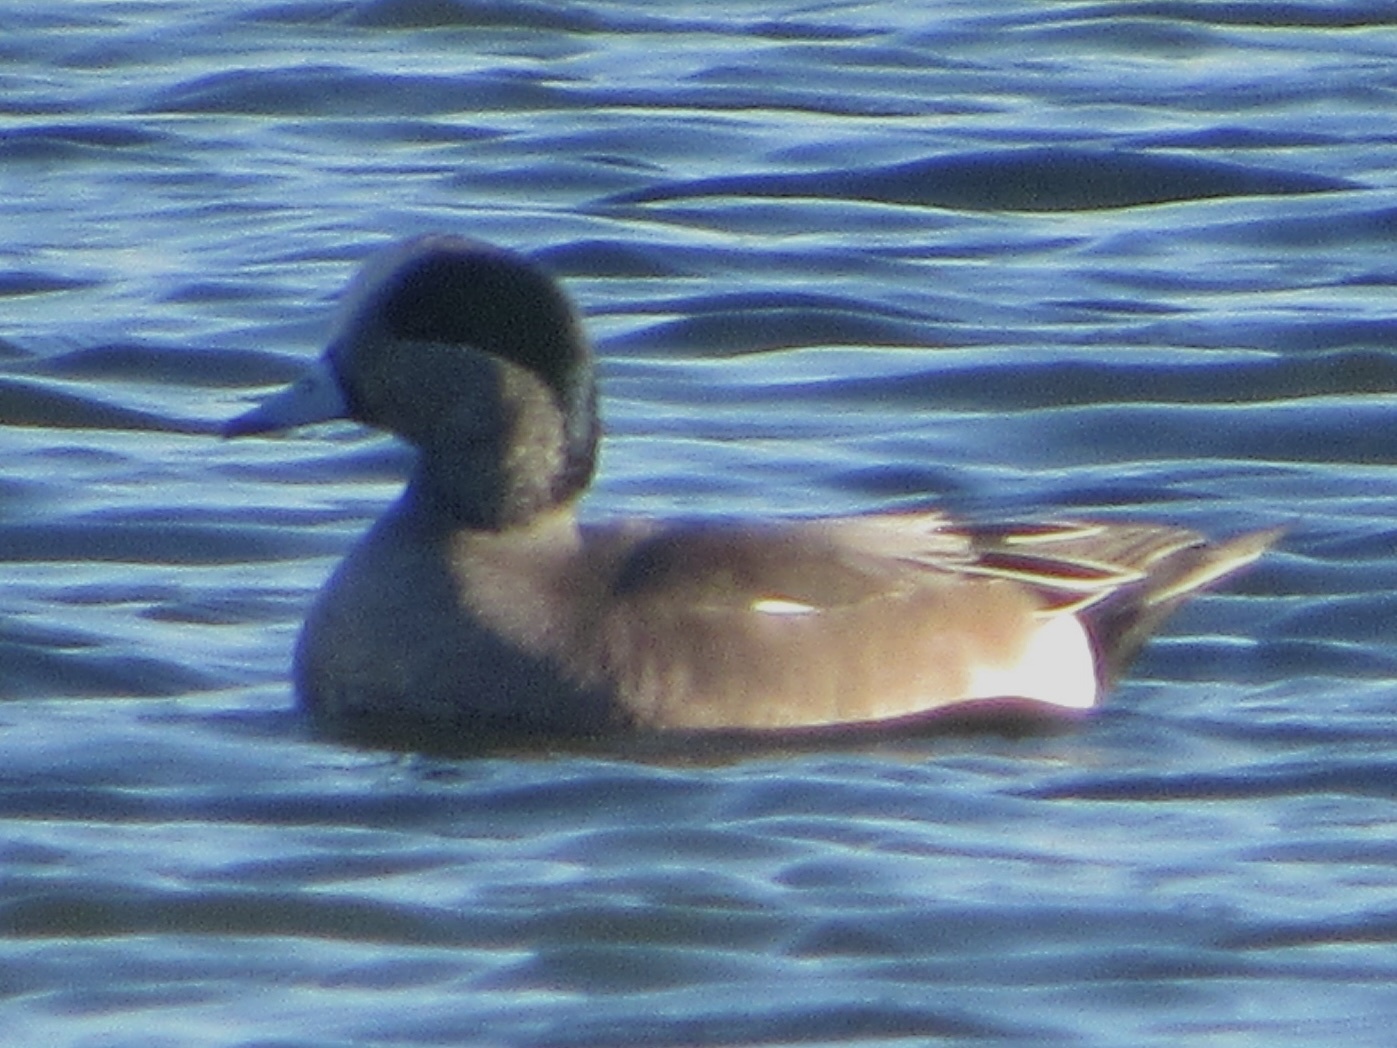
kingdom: Animalia
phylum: Chordata
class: Aves
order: Anseriformes
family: Anatidae
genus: Mareca
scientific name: Mareca americana
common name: American wigeon
